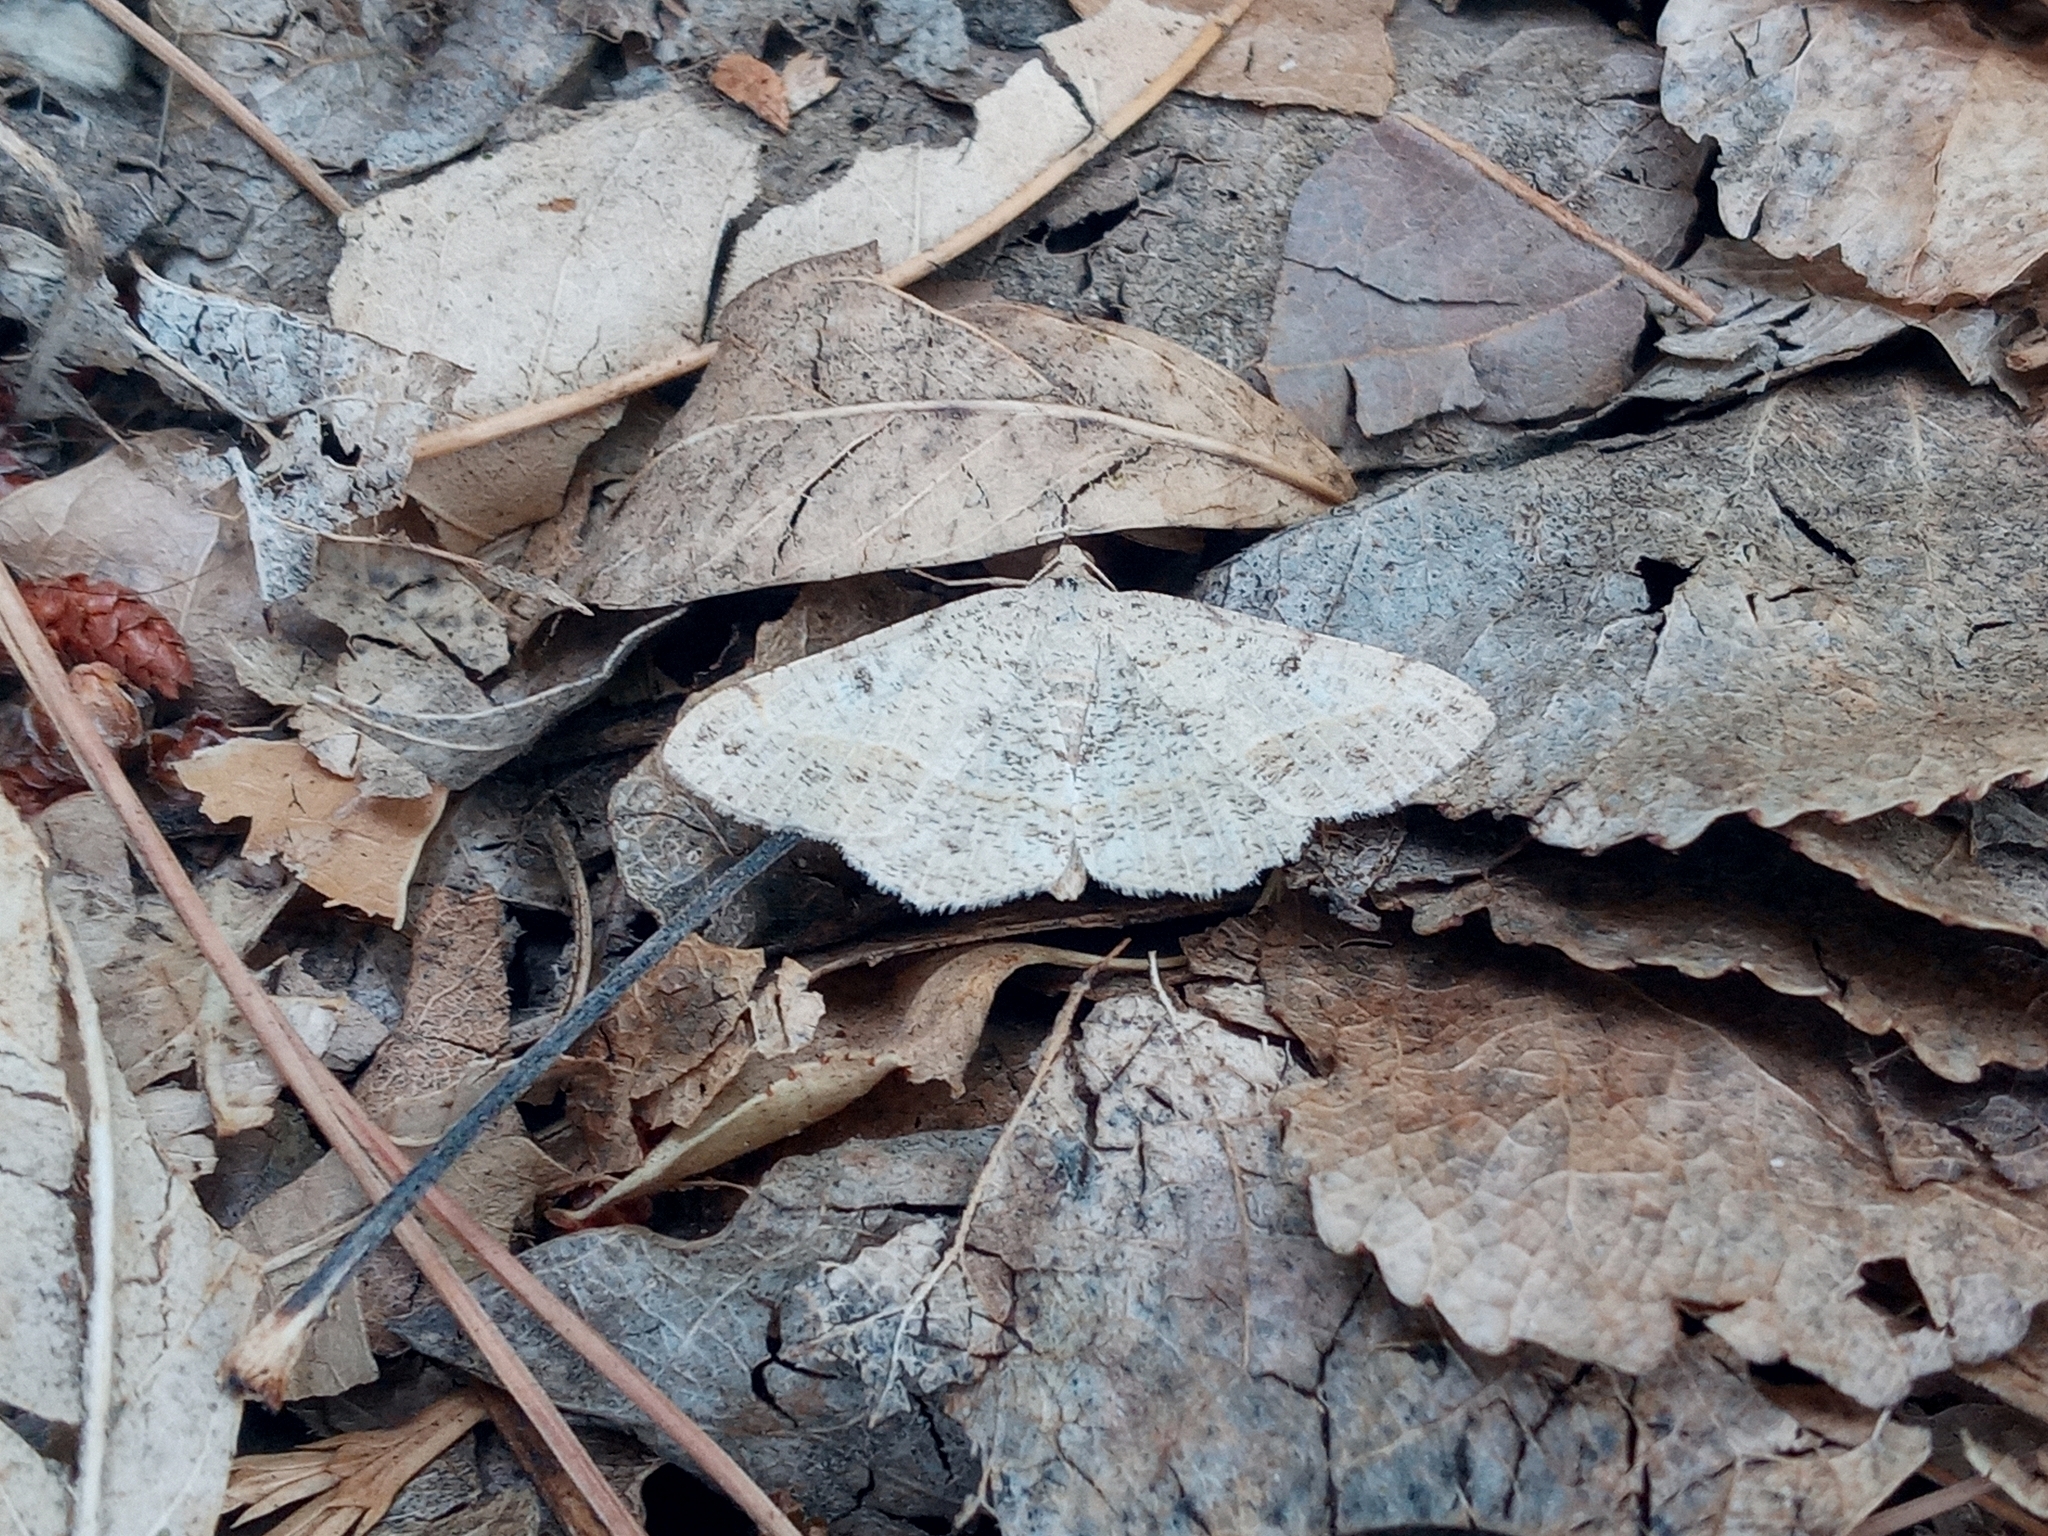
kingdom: Animalia
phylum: Arthropoda
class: Insecta
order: Lepidoptera
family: Geometridae
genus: Digrammia
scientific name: Digrammia irrorata
